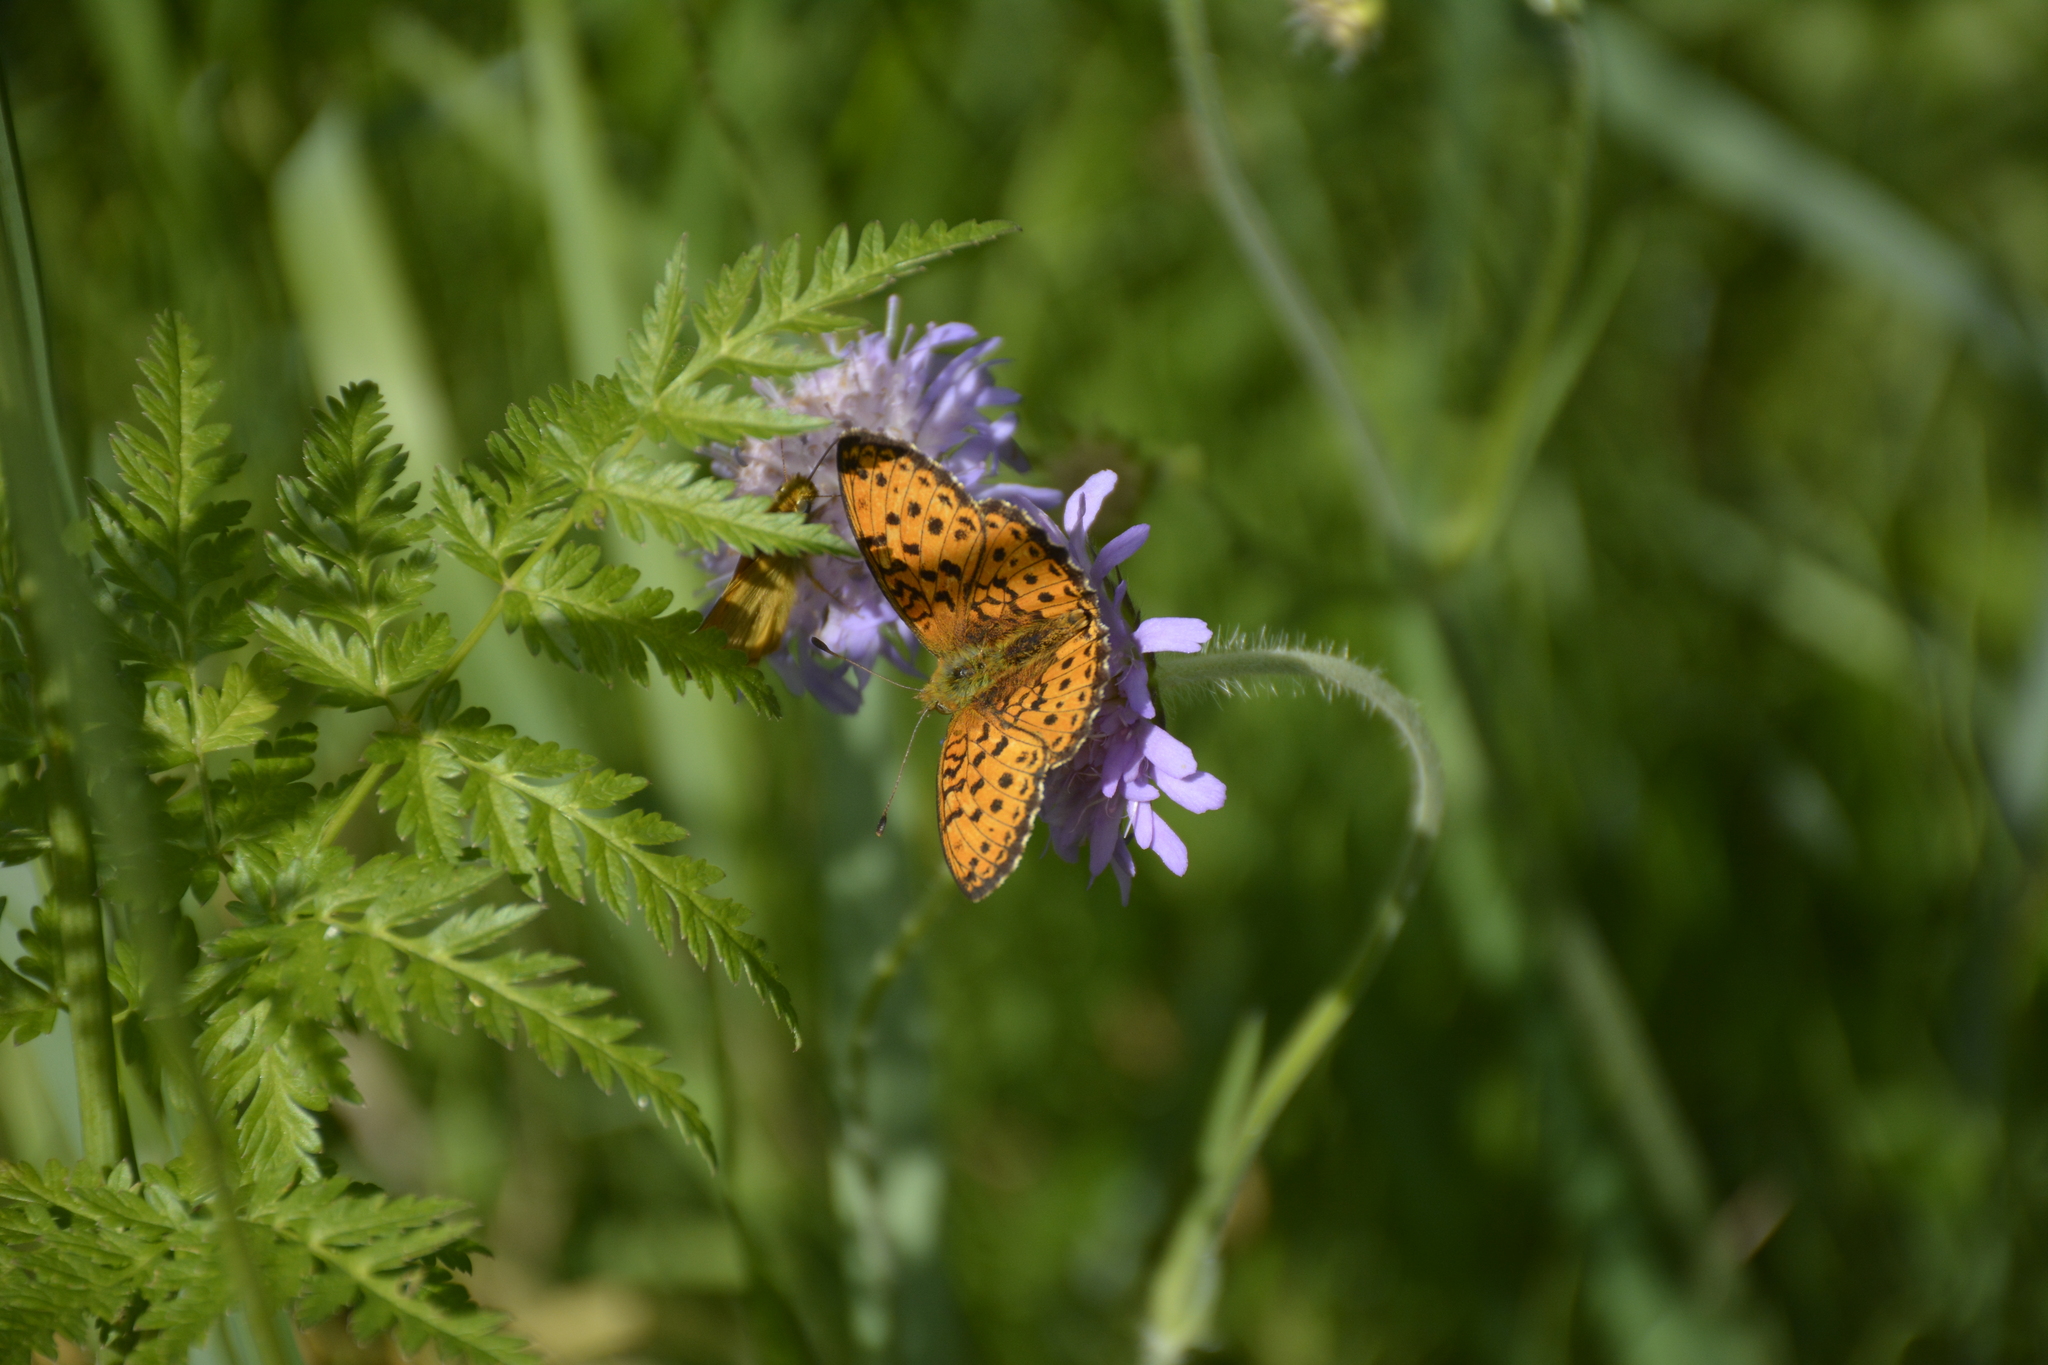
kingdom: Animalia
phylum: Arthropoda
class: Insecta
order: Lepidoptera
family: Nymphalidae
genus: Brenthis
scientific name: Brenthis ino
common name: Lesser marbled fritillary
